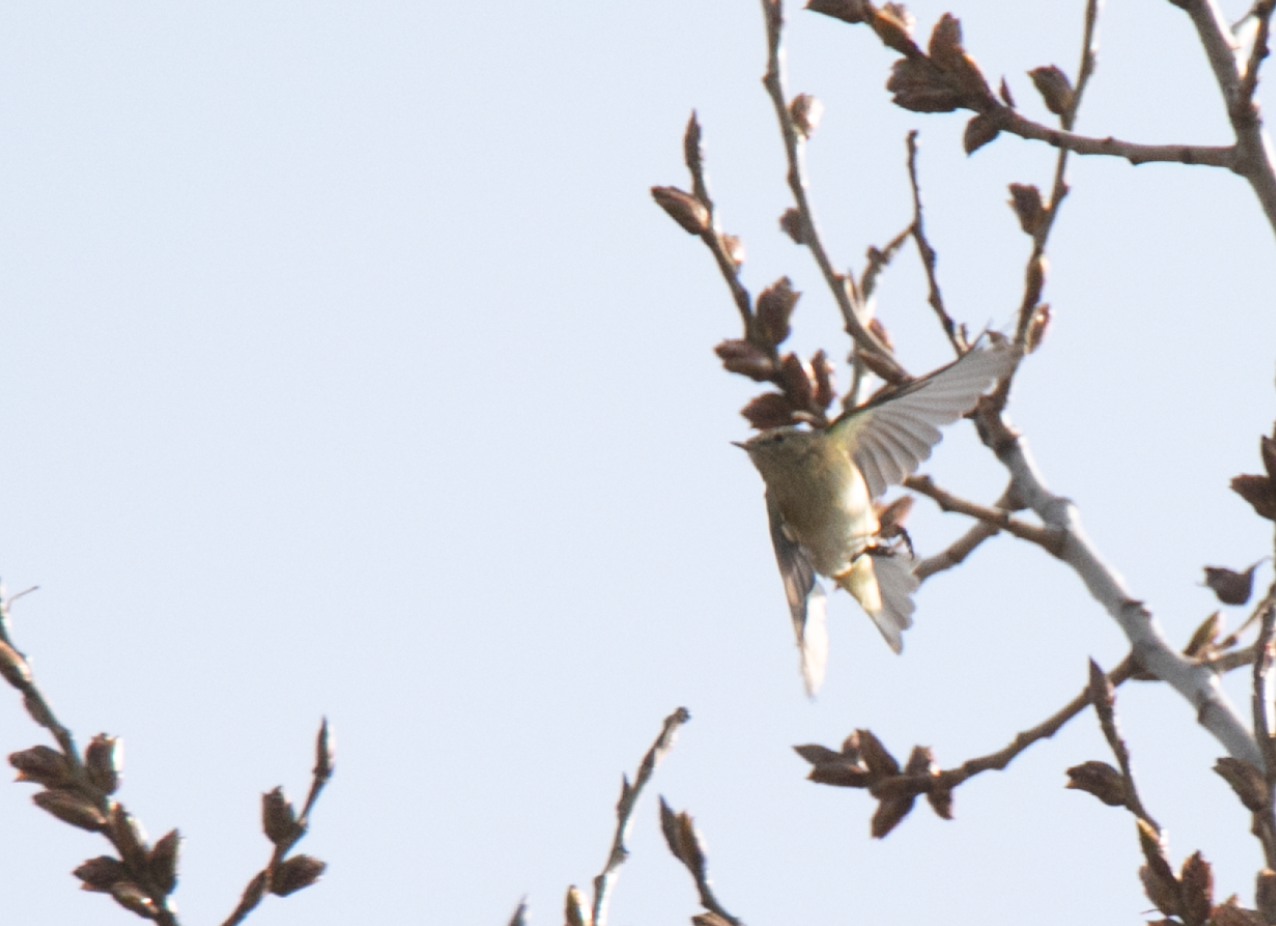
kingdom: Animalia
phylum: Chordata
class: Aves
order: Passeriformes
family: Phylloscopidae
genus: Phylloscopus
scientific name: Phylloscopus collybita
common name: Common chiffchaff
